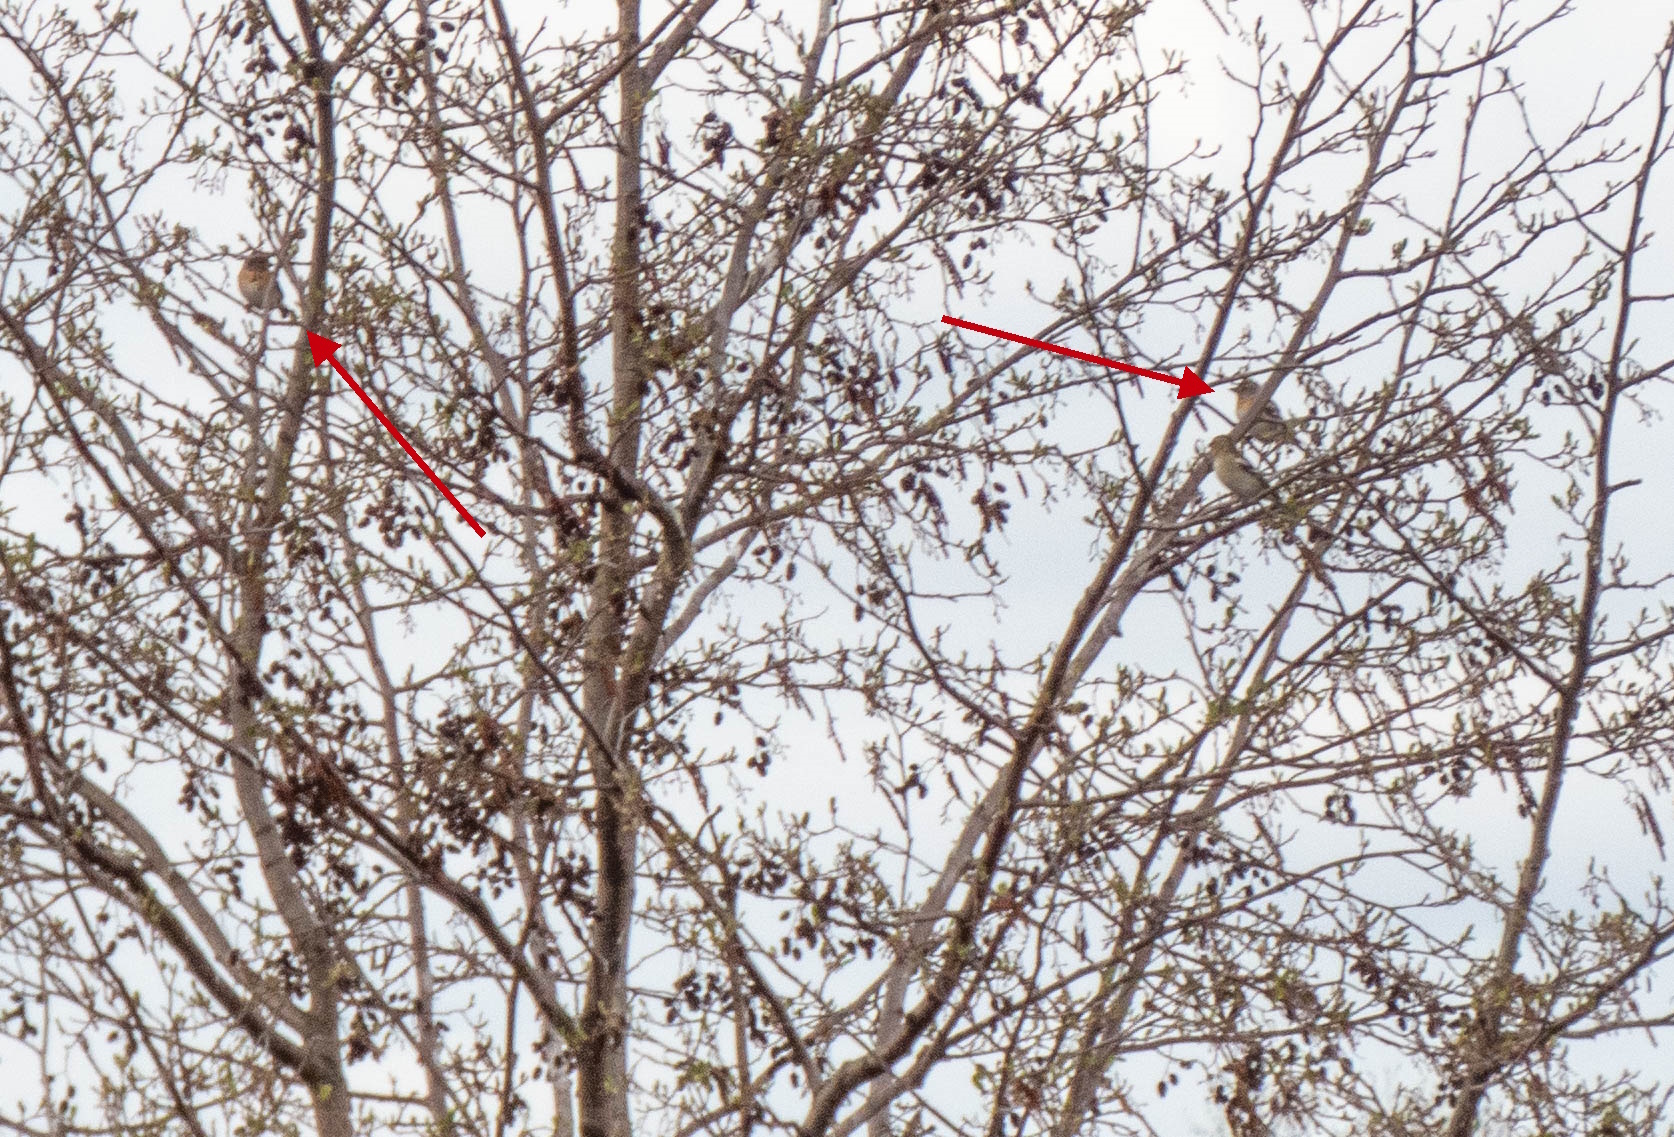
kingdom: Animalia
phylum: Chordata
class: Aves
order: Passeriformes
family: Fringillidae
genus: Fringilla
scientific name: Fringilla montifringilla
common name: Brambling
